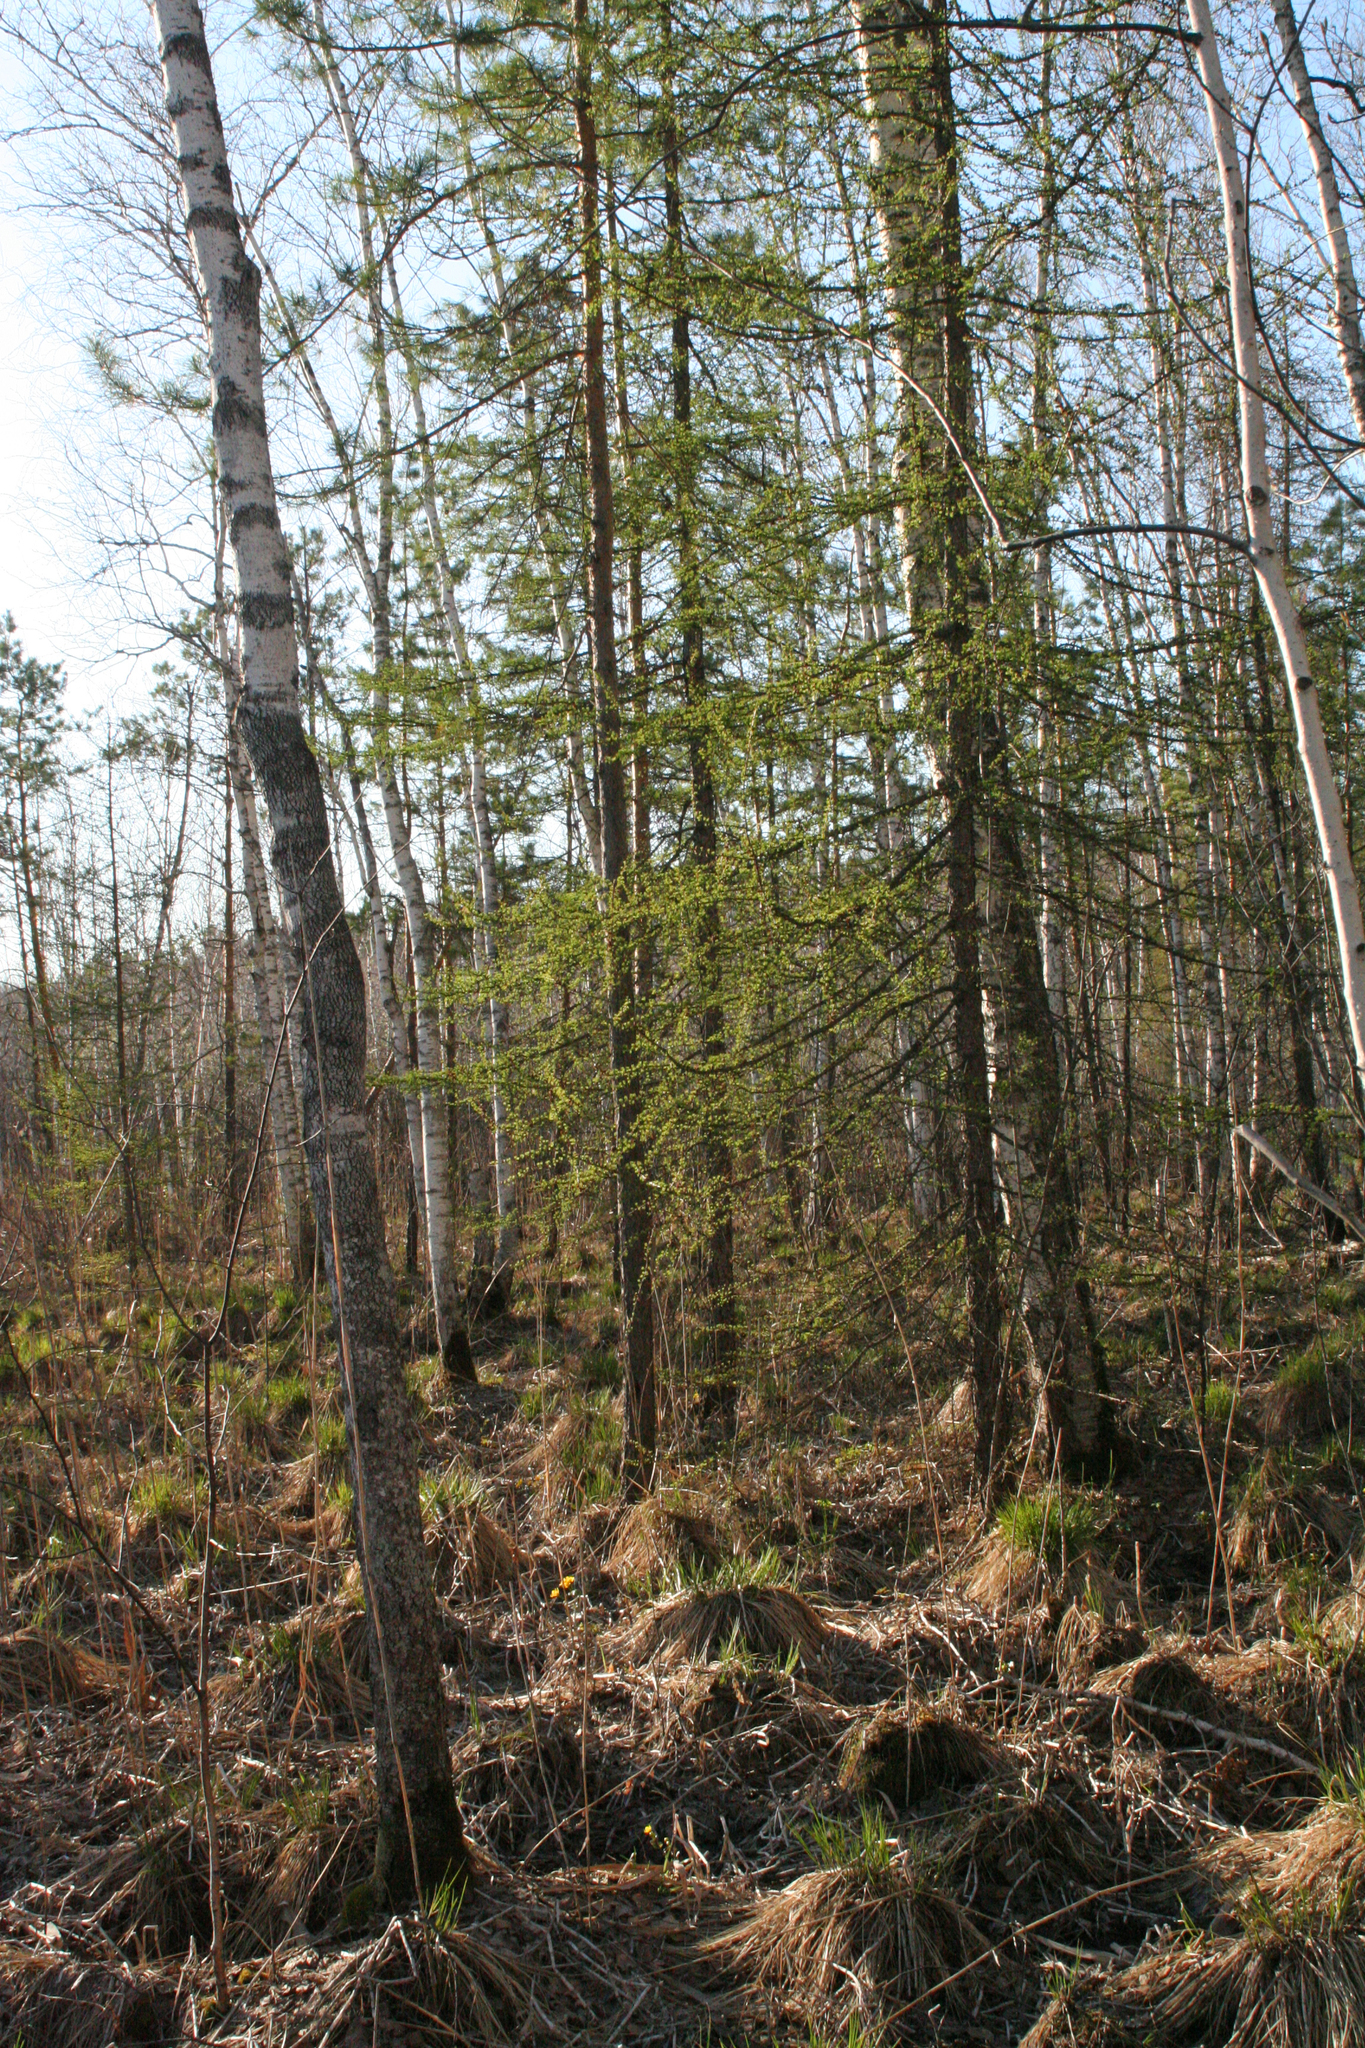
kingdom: Plantae
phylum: Tracheophyta
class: Pinopsida
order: Pinales
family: Pinaceae
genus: Larix
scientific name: Larix sibirica
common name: Siberian larch
